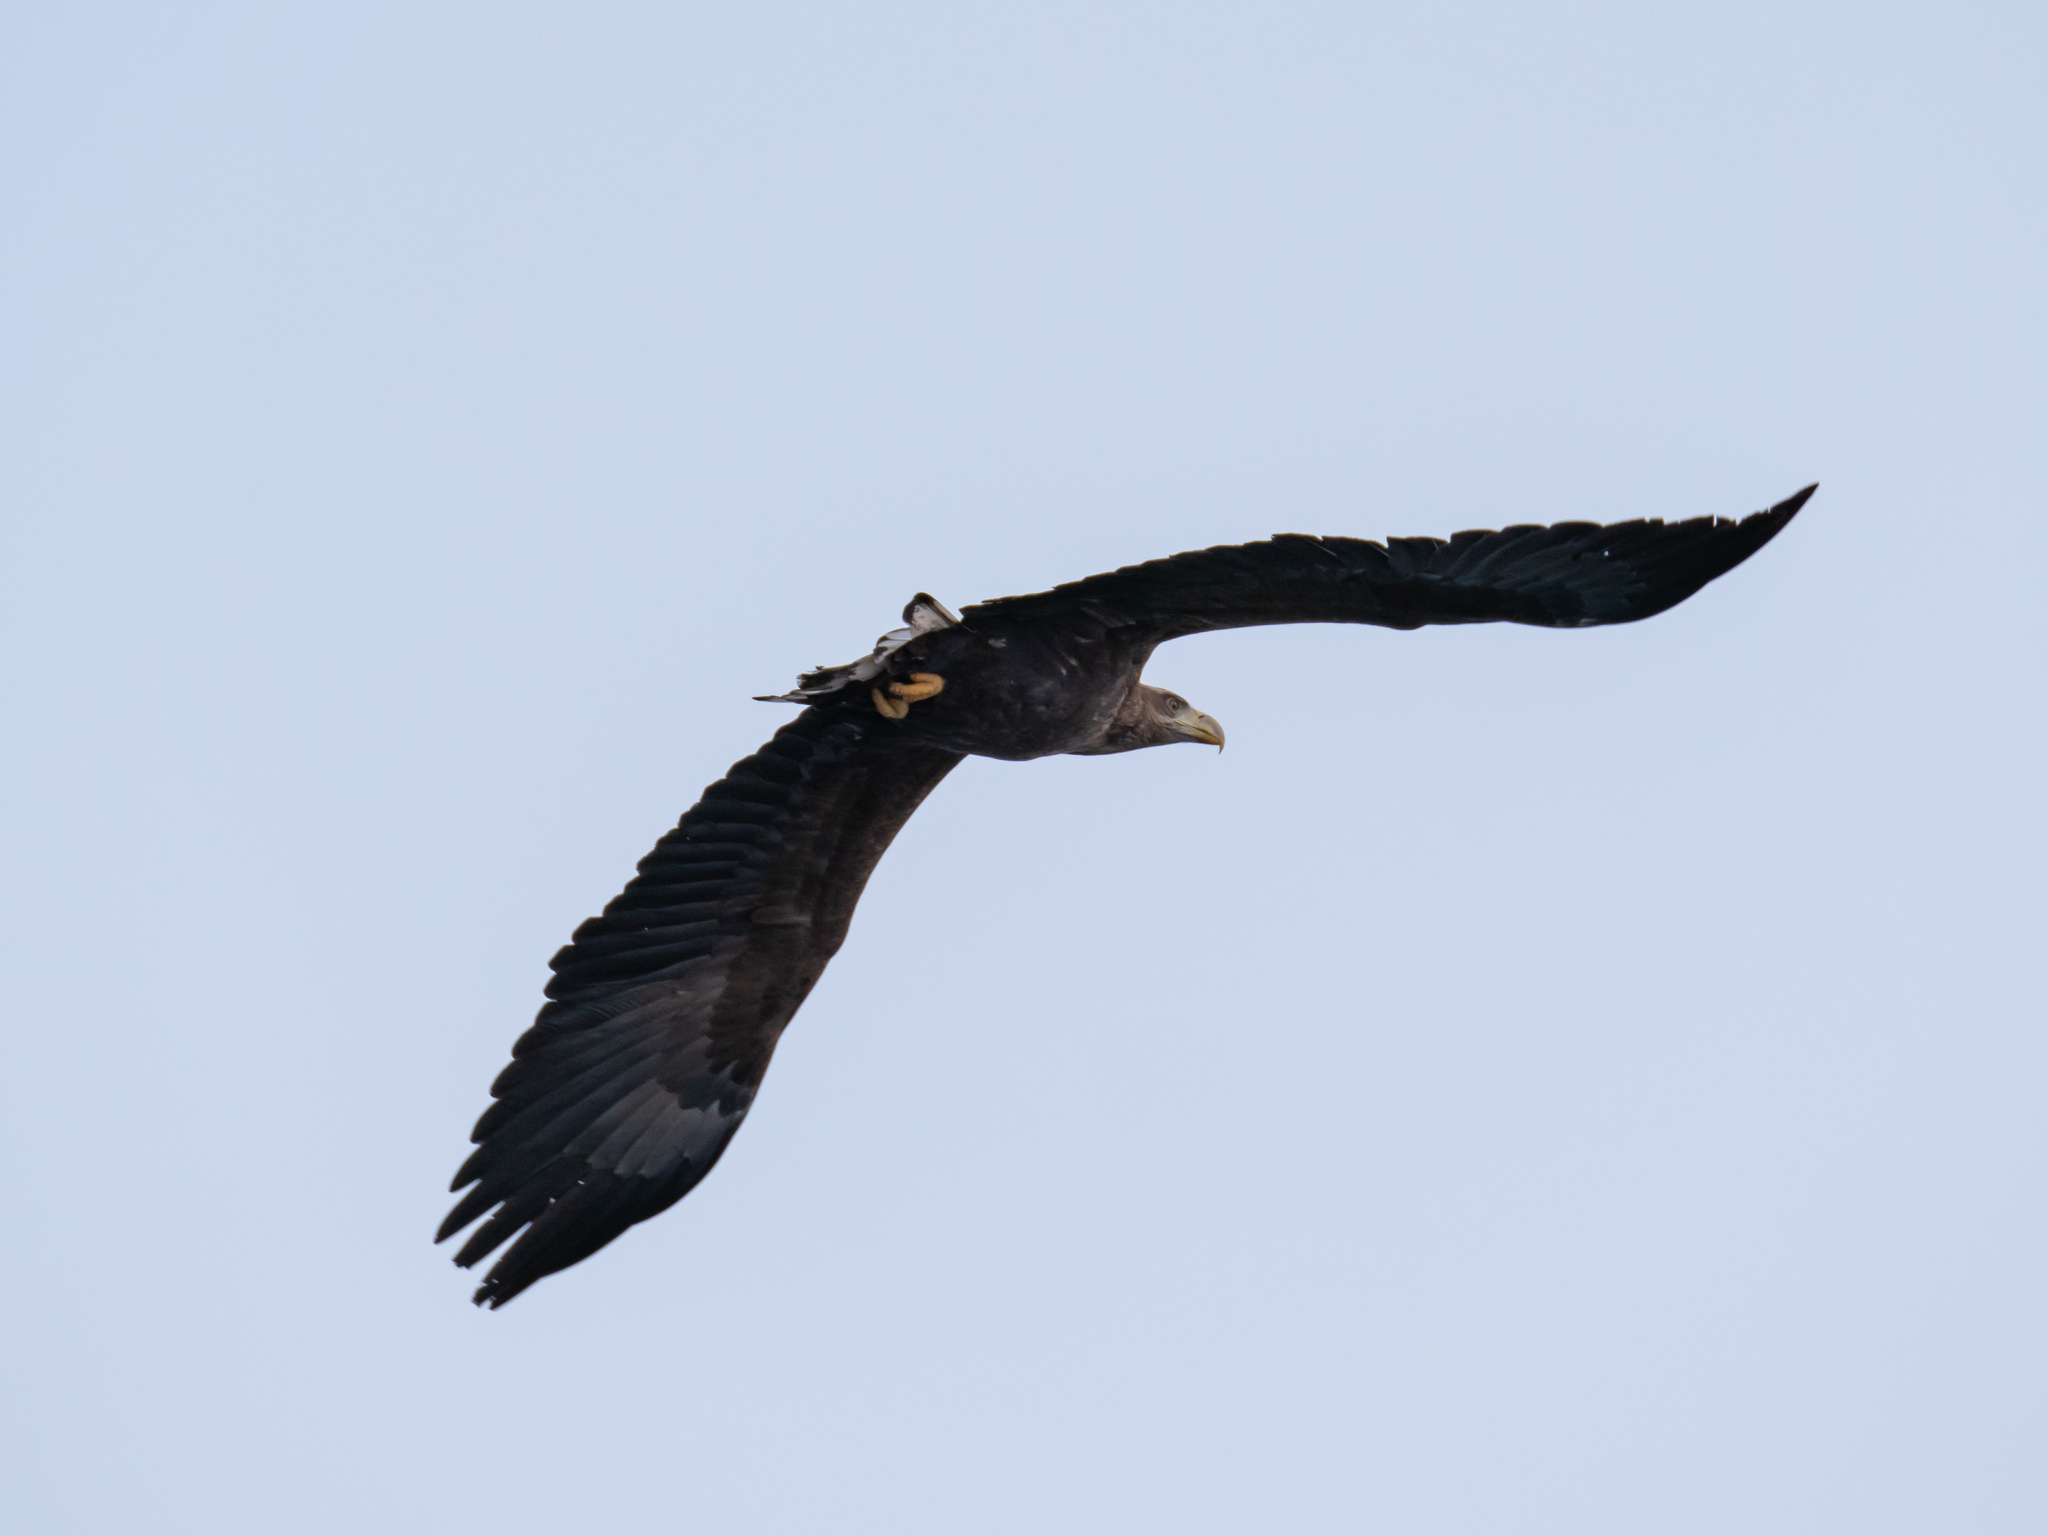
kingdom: Animalia
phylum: Chordata
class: Aves
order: Accipitriformes
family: Accipitridae
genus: Haliaeetus
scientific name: Haliaeetus albicilla
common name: White-tailed eagle
